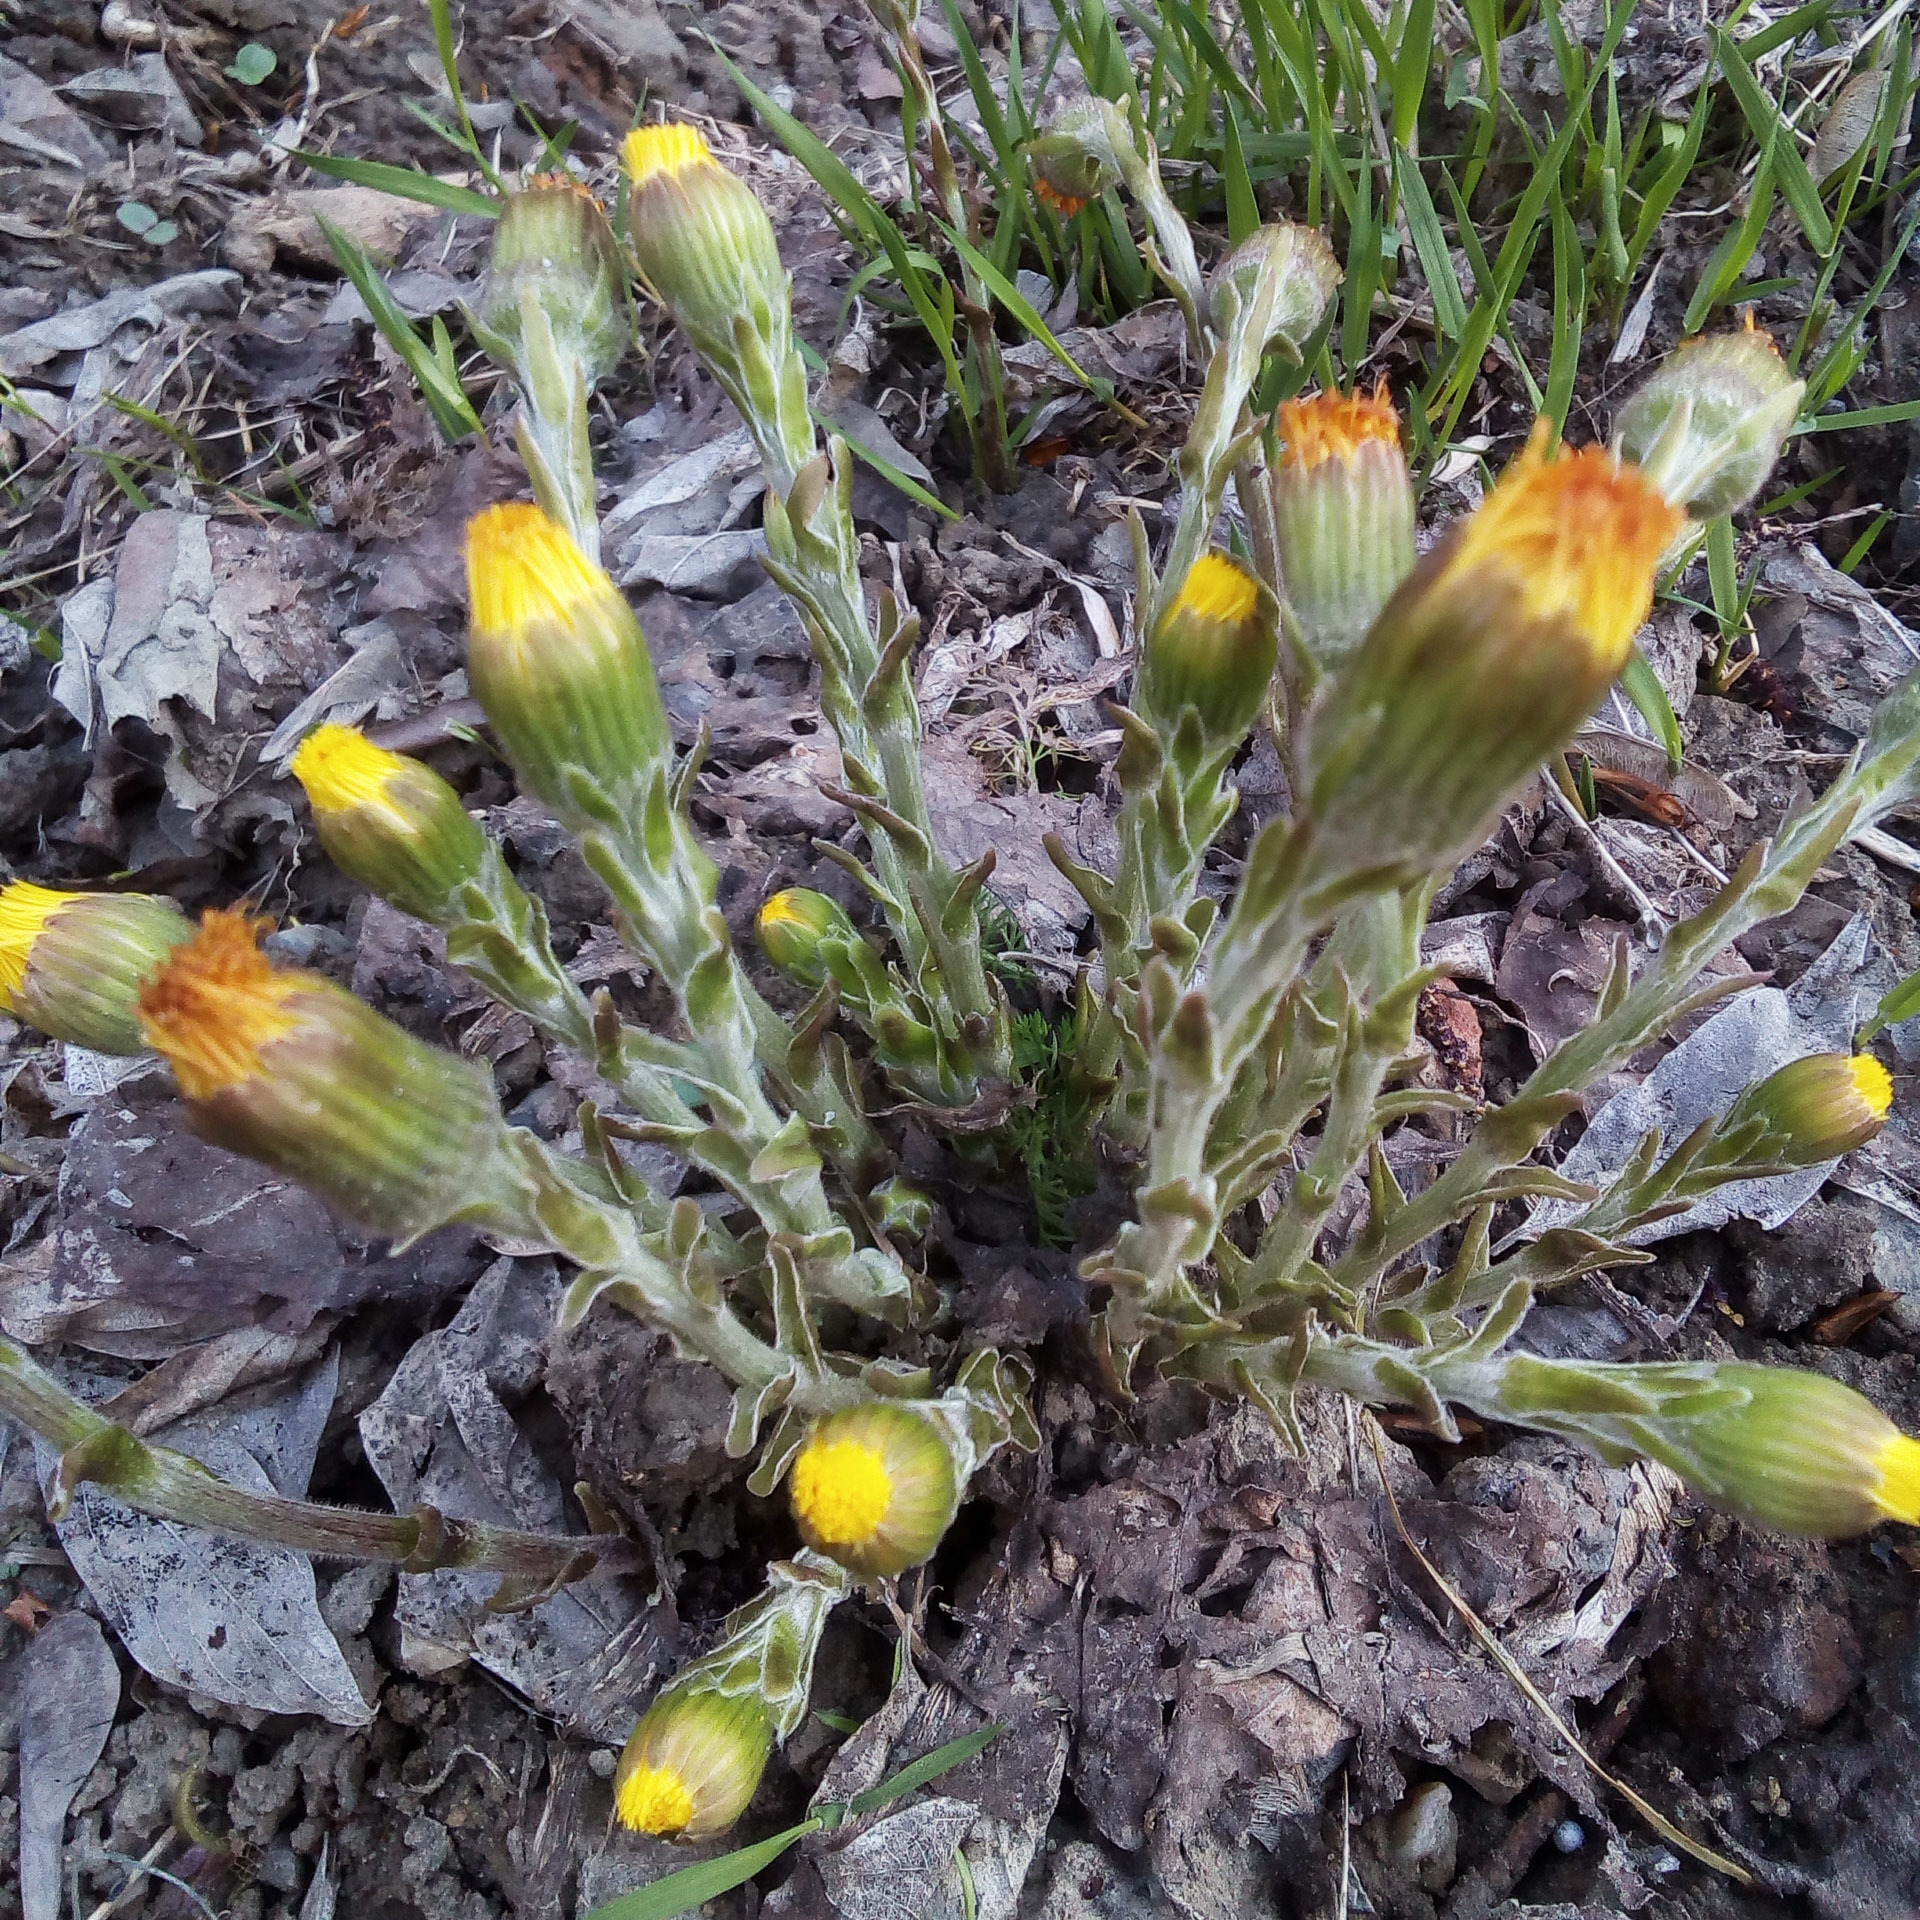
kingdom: Plantae
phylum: Tracheophyta
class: Magnoliopsida
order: Asterales
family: Asteraceae
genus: Tussilago
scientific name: Tussilago farfara
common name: Coltsfoot
